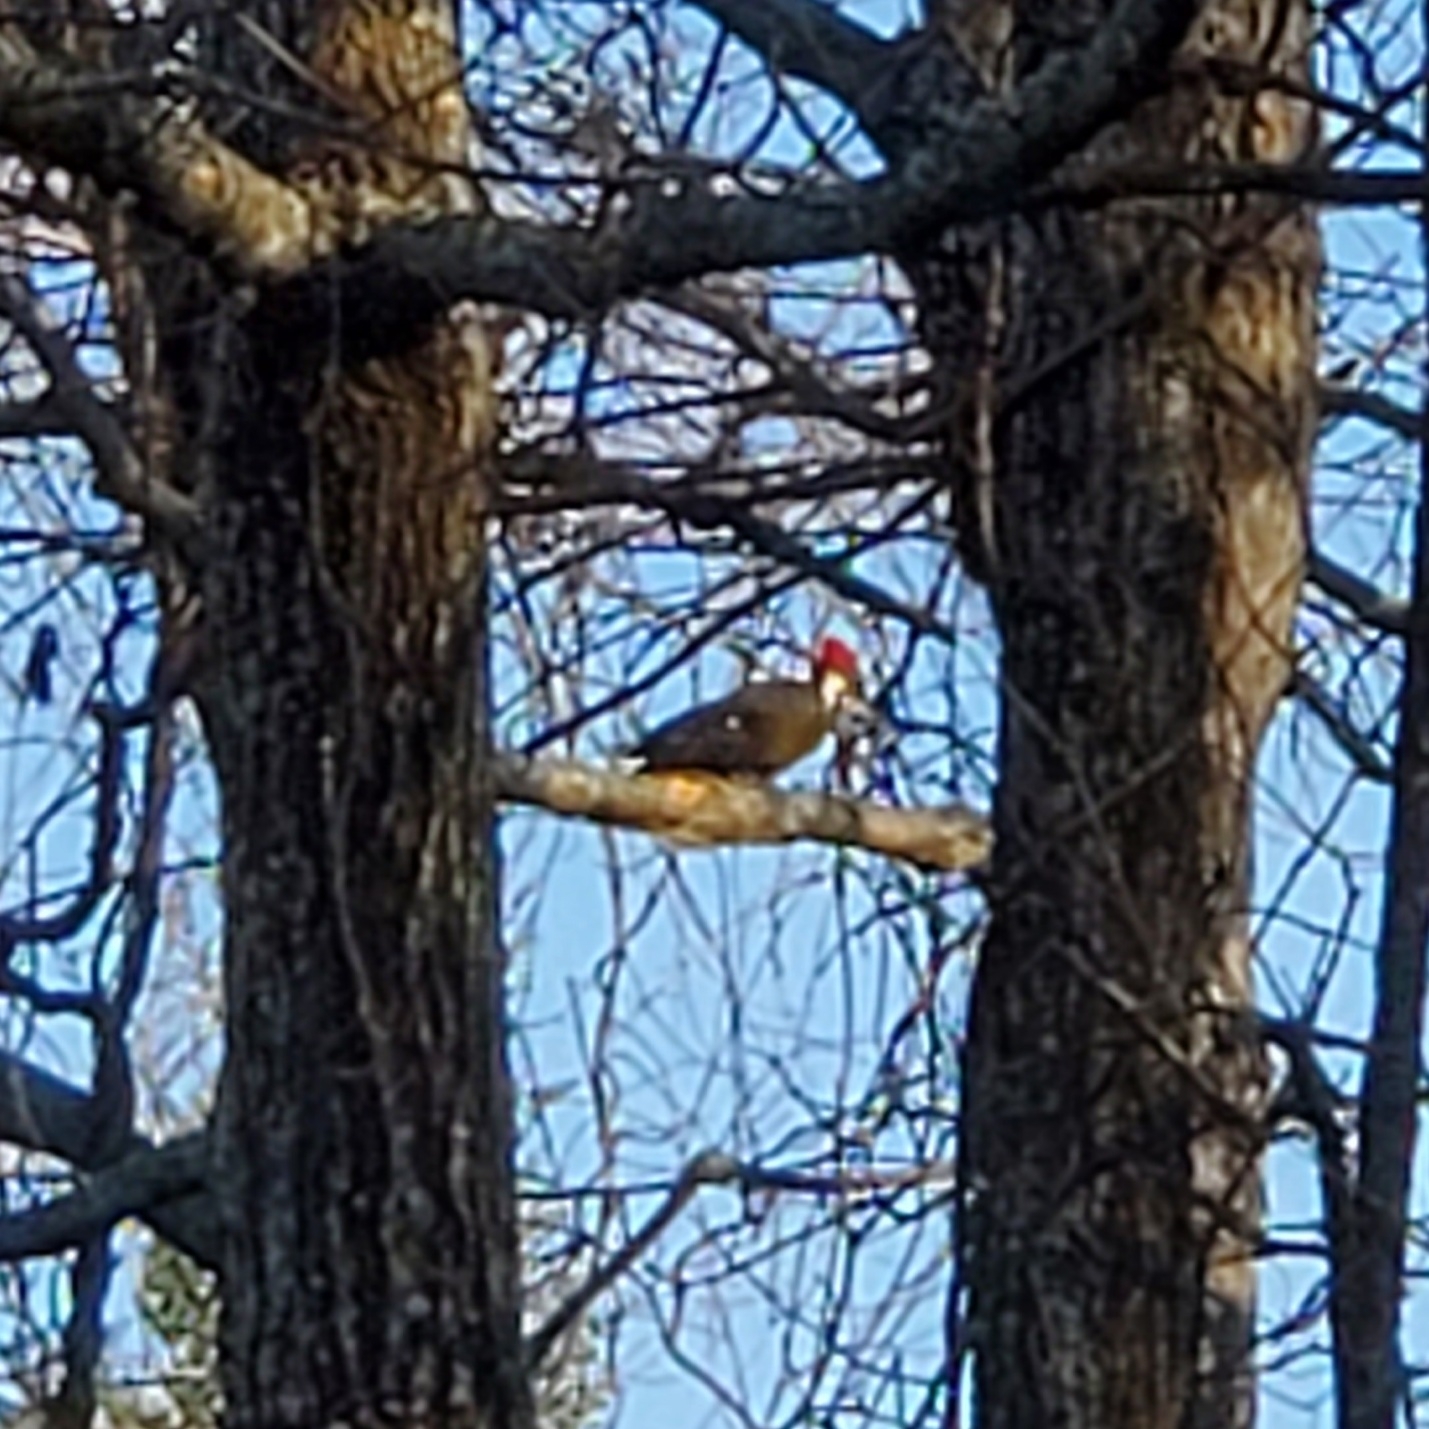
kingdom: Animalia
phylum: Chordata
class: Aves
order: Piciformes
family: Picidae
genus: Dryocopus
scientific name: Dryocopus pileatus
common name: Pileated woodpecker
